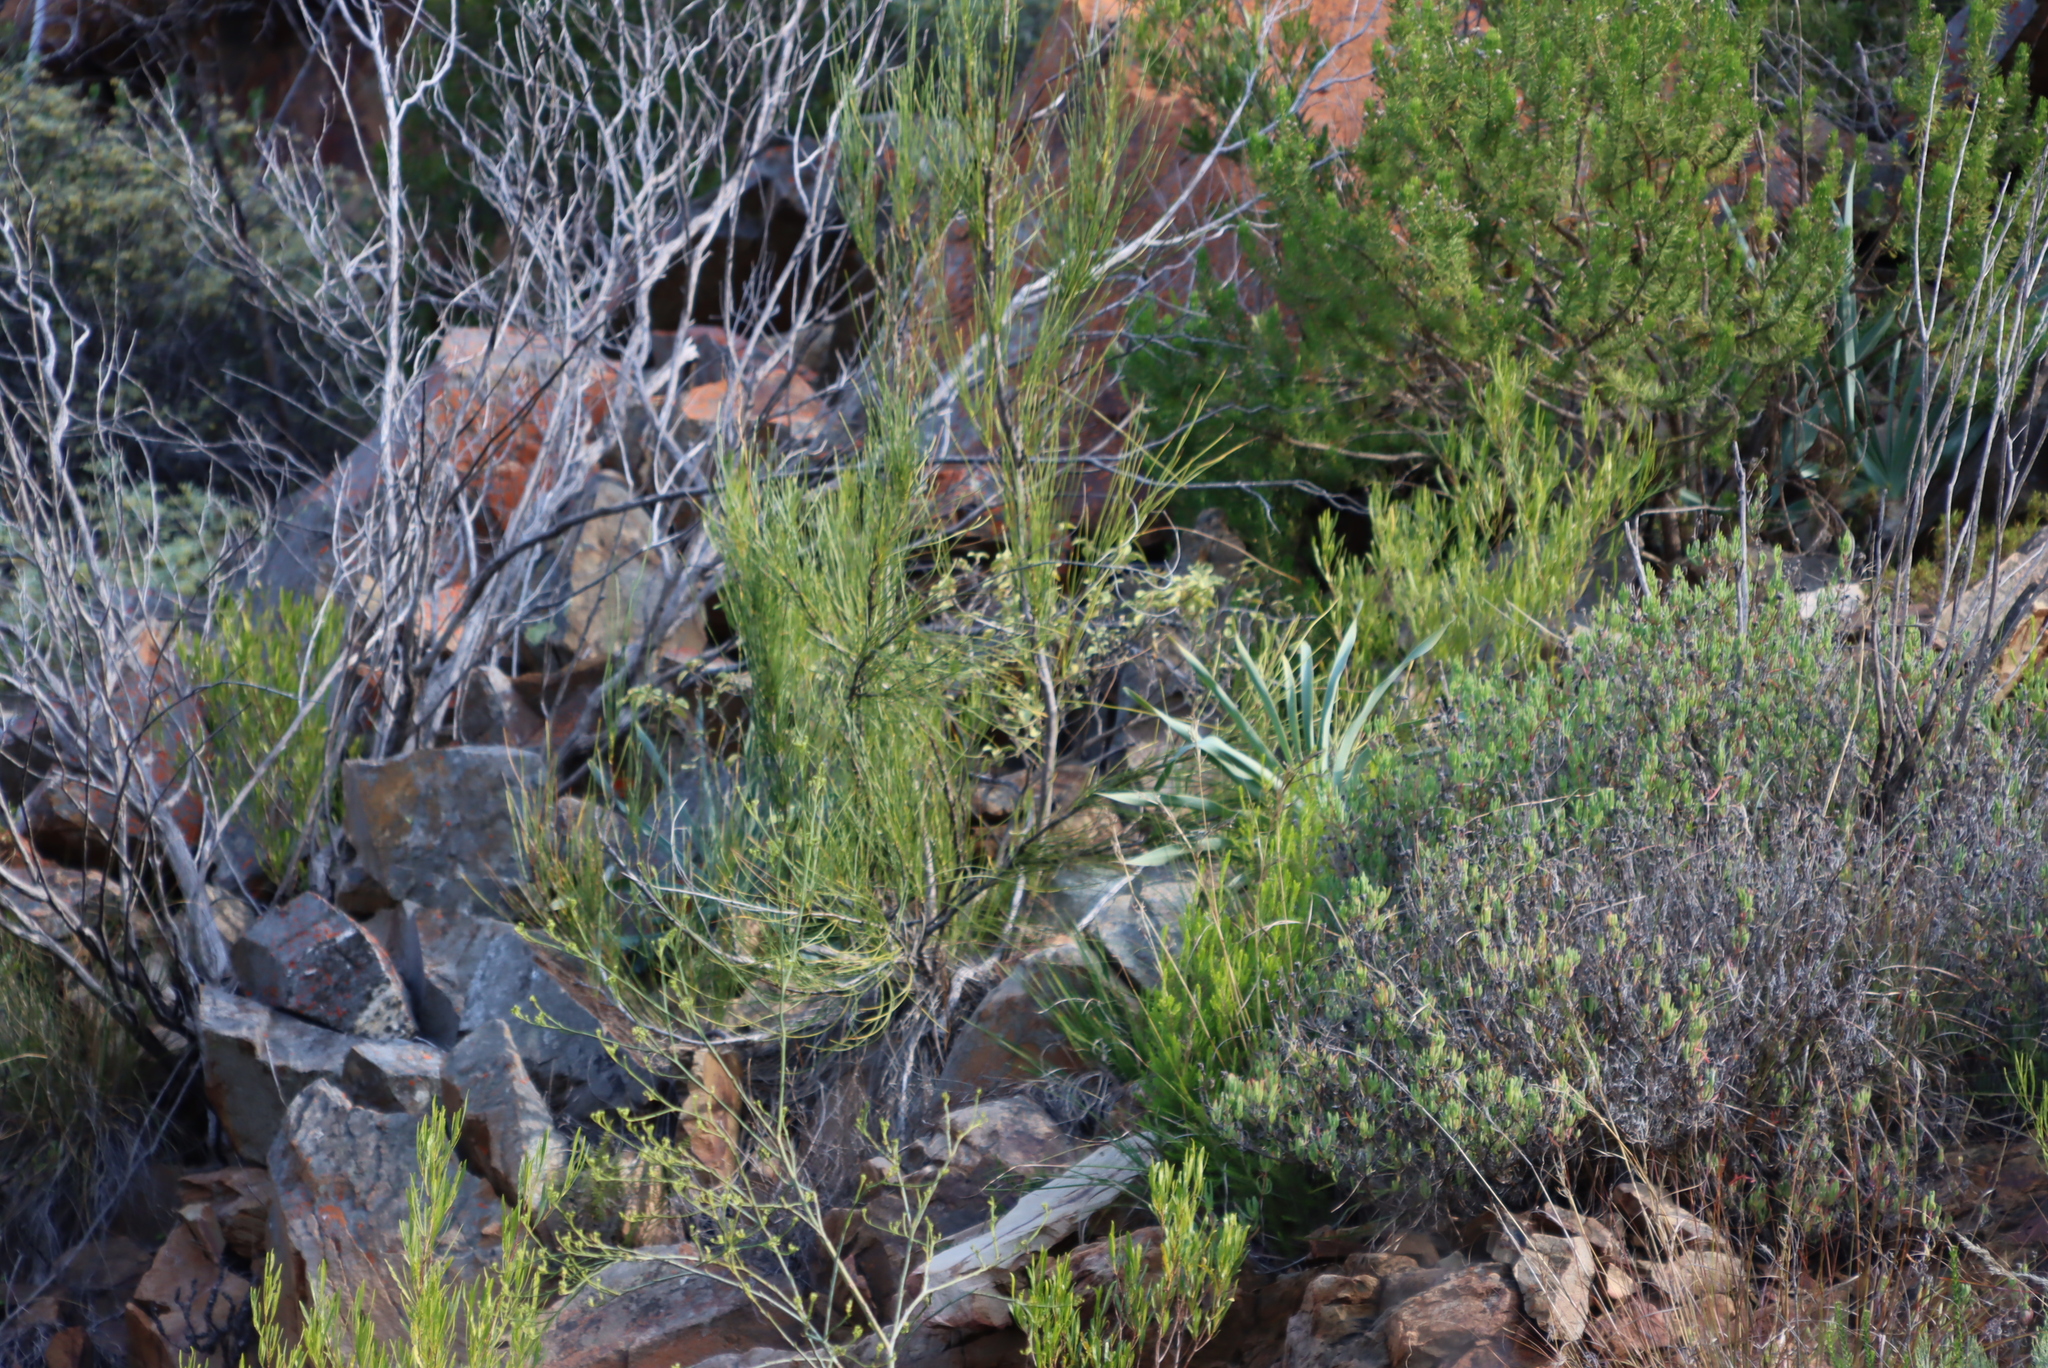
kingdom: Plantae
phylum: Tracheophyta
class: Liliopsida
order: Asparagales
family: Amaryllidaceae
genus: Boophone
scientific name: Boophone disticha
